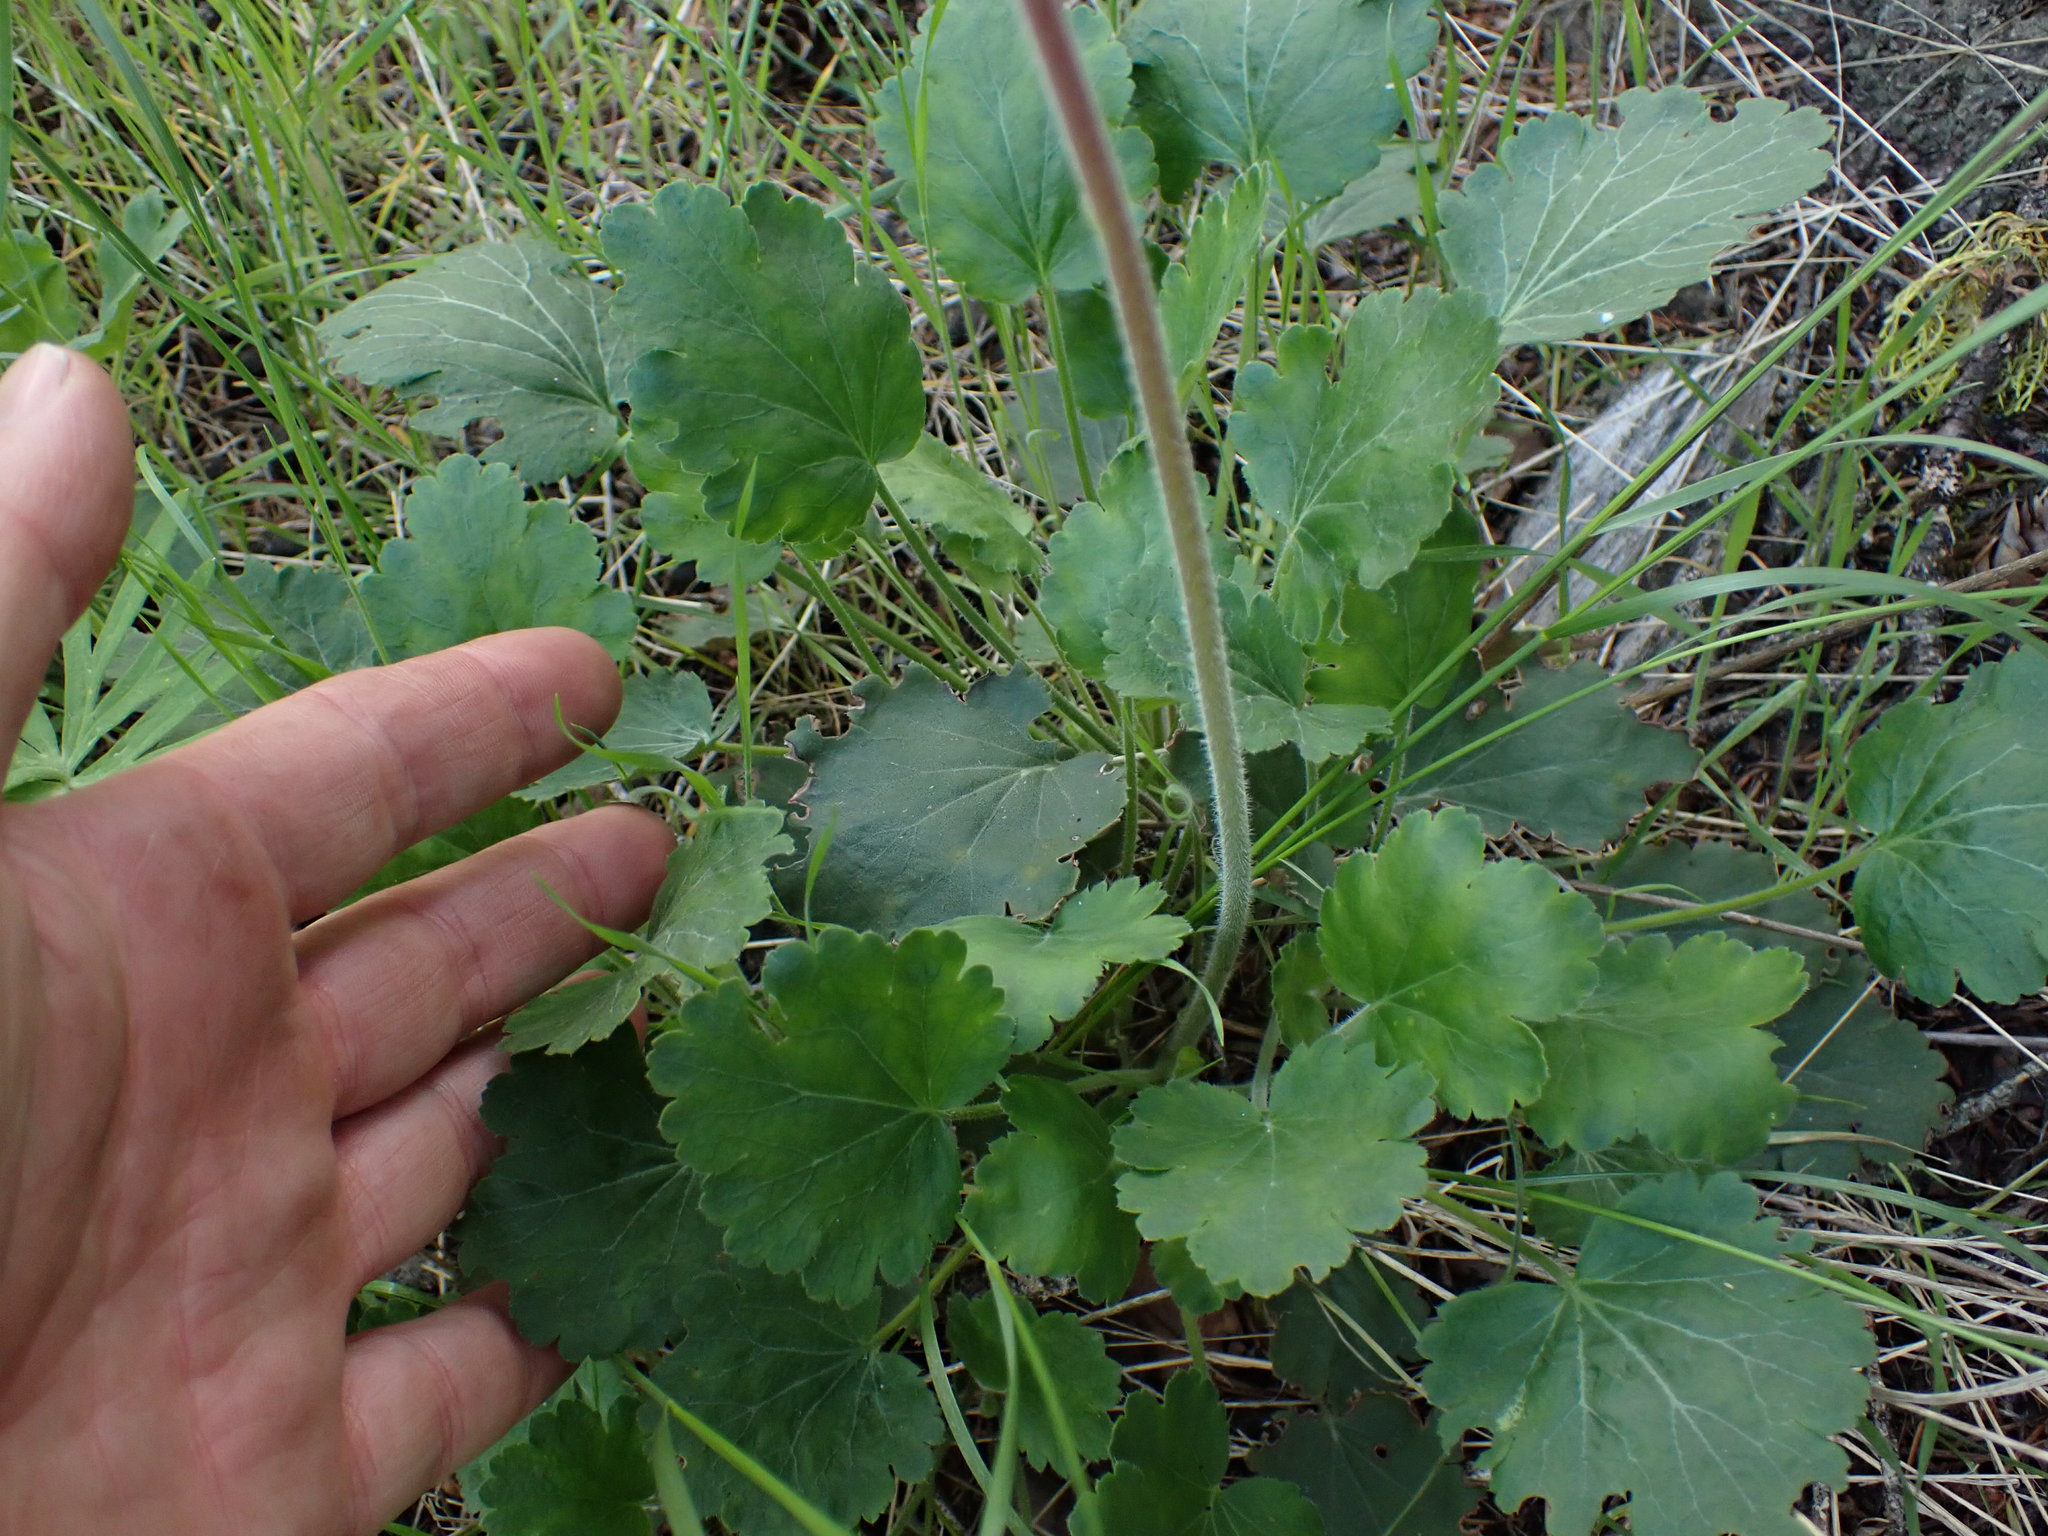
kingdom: Plantae
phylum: Tracheophyta
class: Magnoliopsida
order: Saxifragales
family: Saxifragaceae
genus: Heuchera
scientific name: Heuchera cylindrica
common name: Mat alumroot
